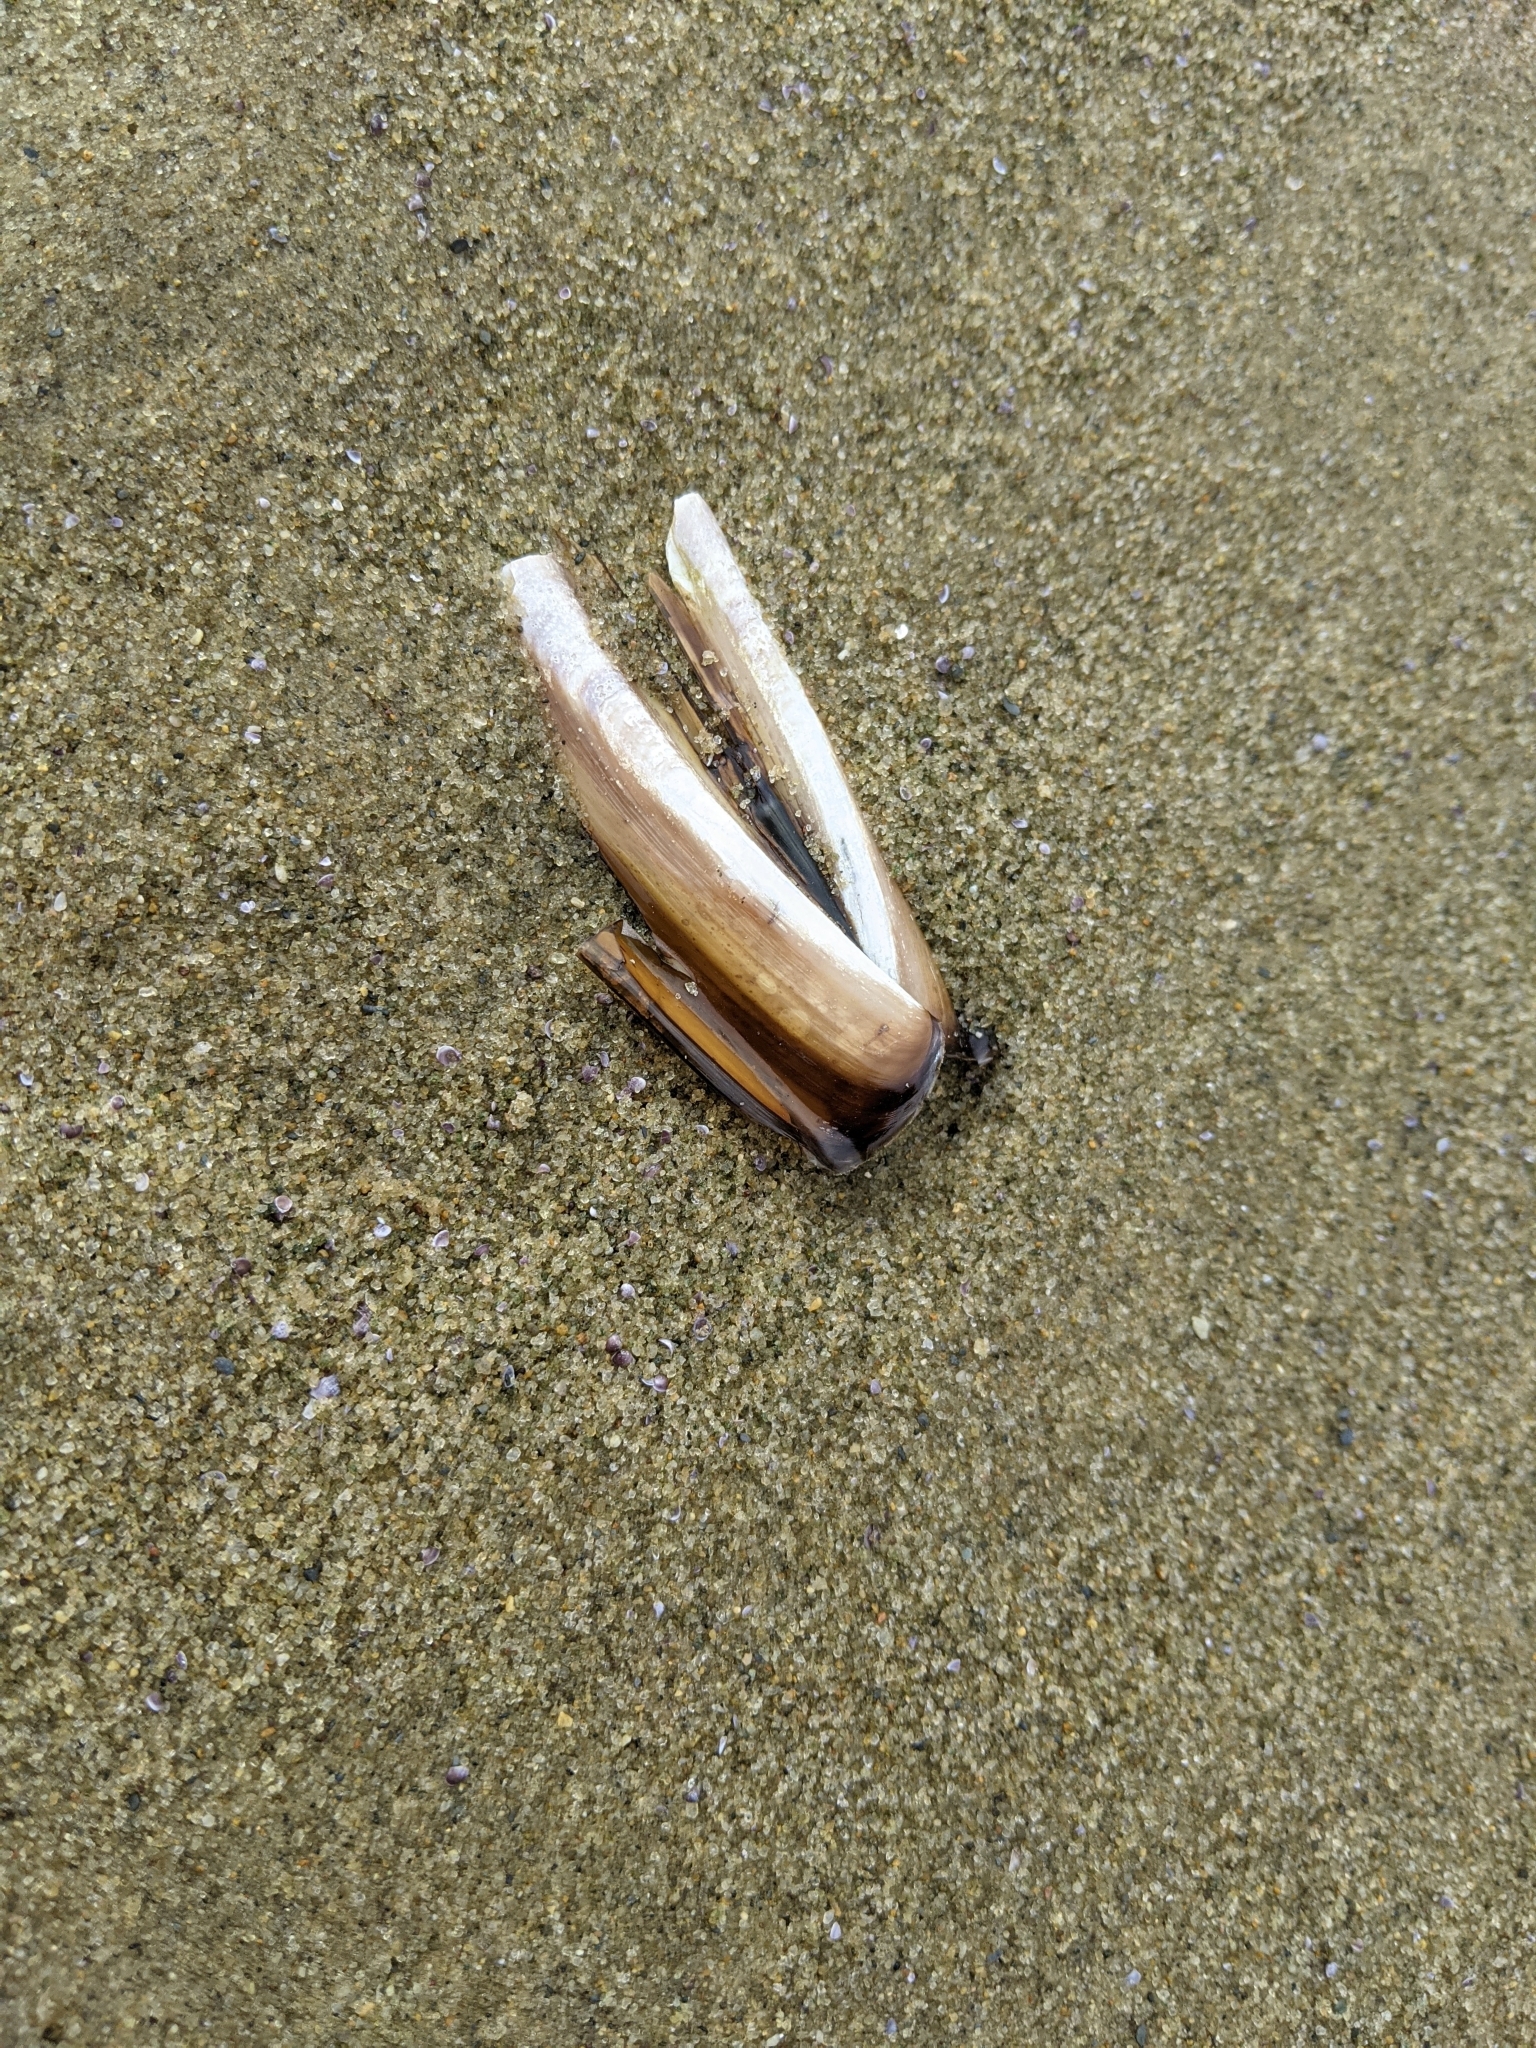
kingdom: Animalia
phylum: Mollusca
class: Bivalvia
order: Adapedonta
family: Pharidae
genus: Ensis
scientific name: Ensis leei
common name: American jack knife clam
